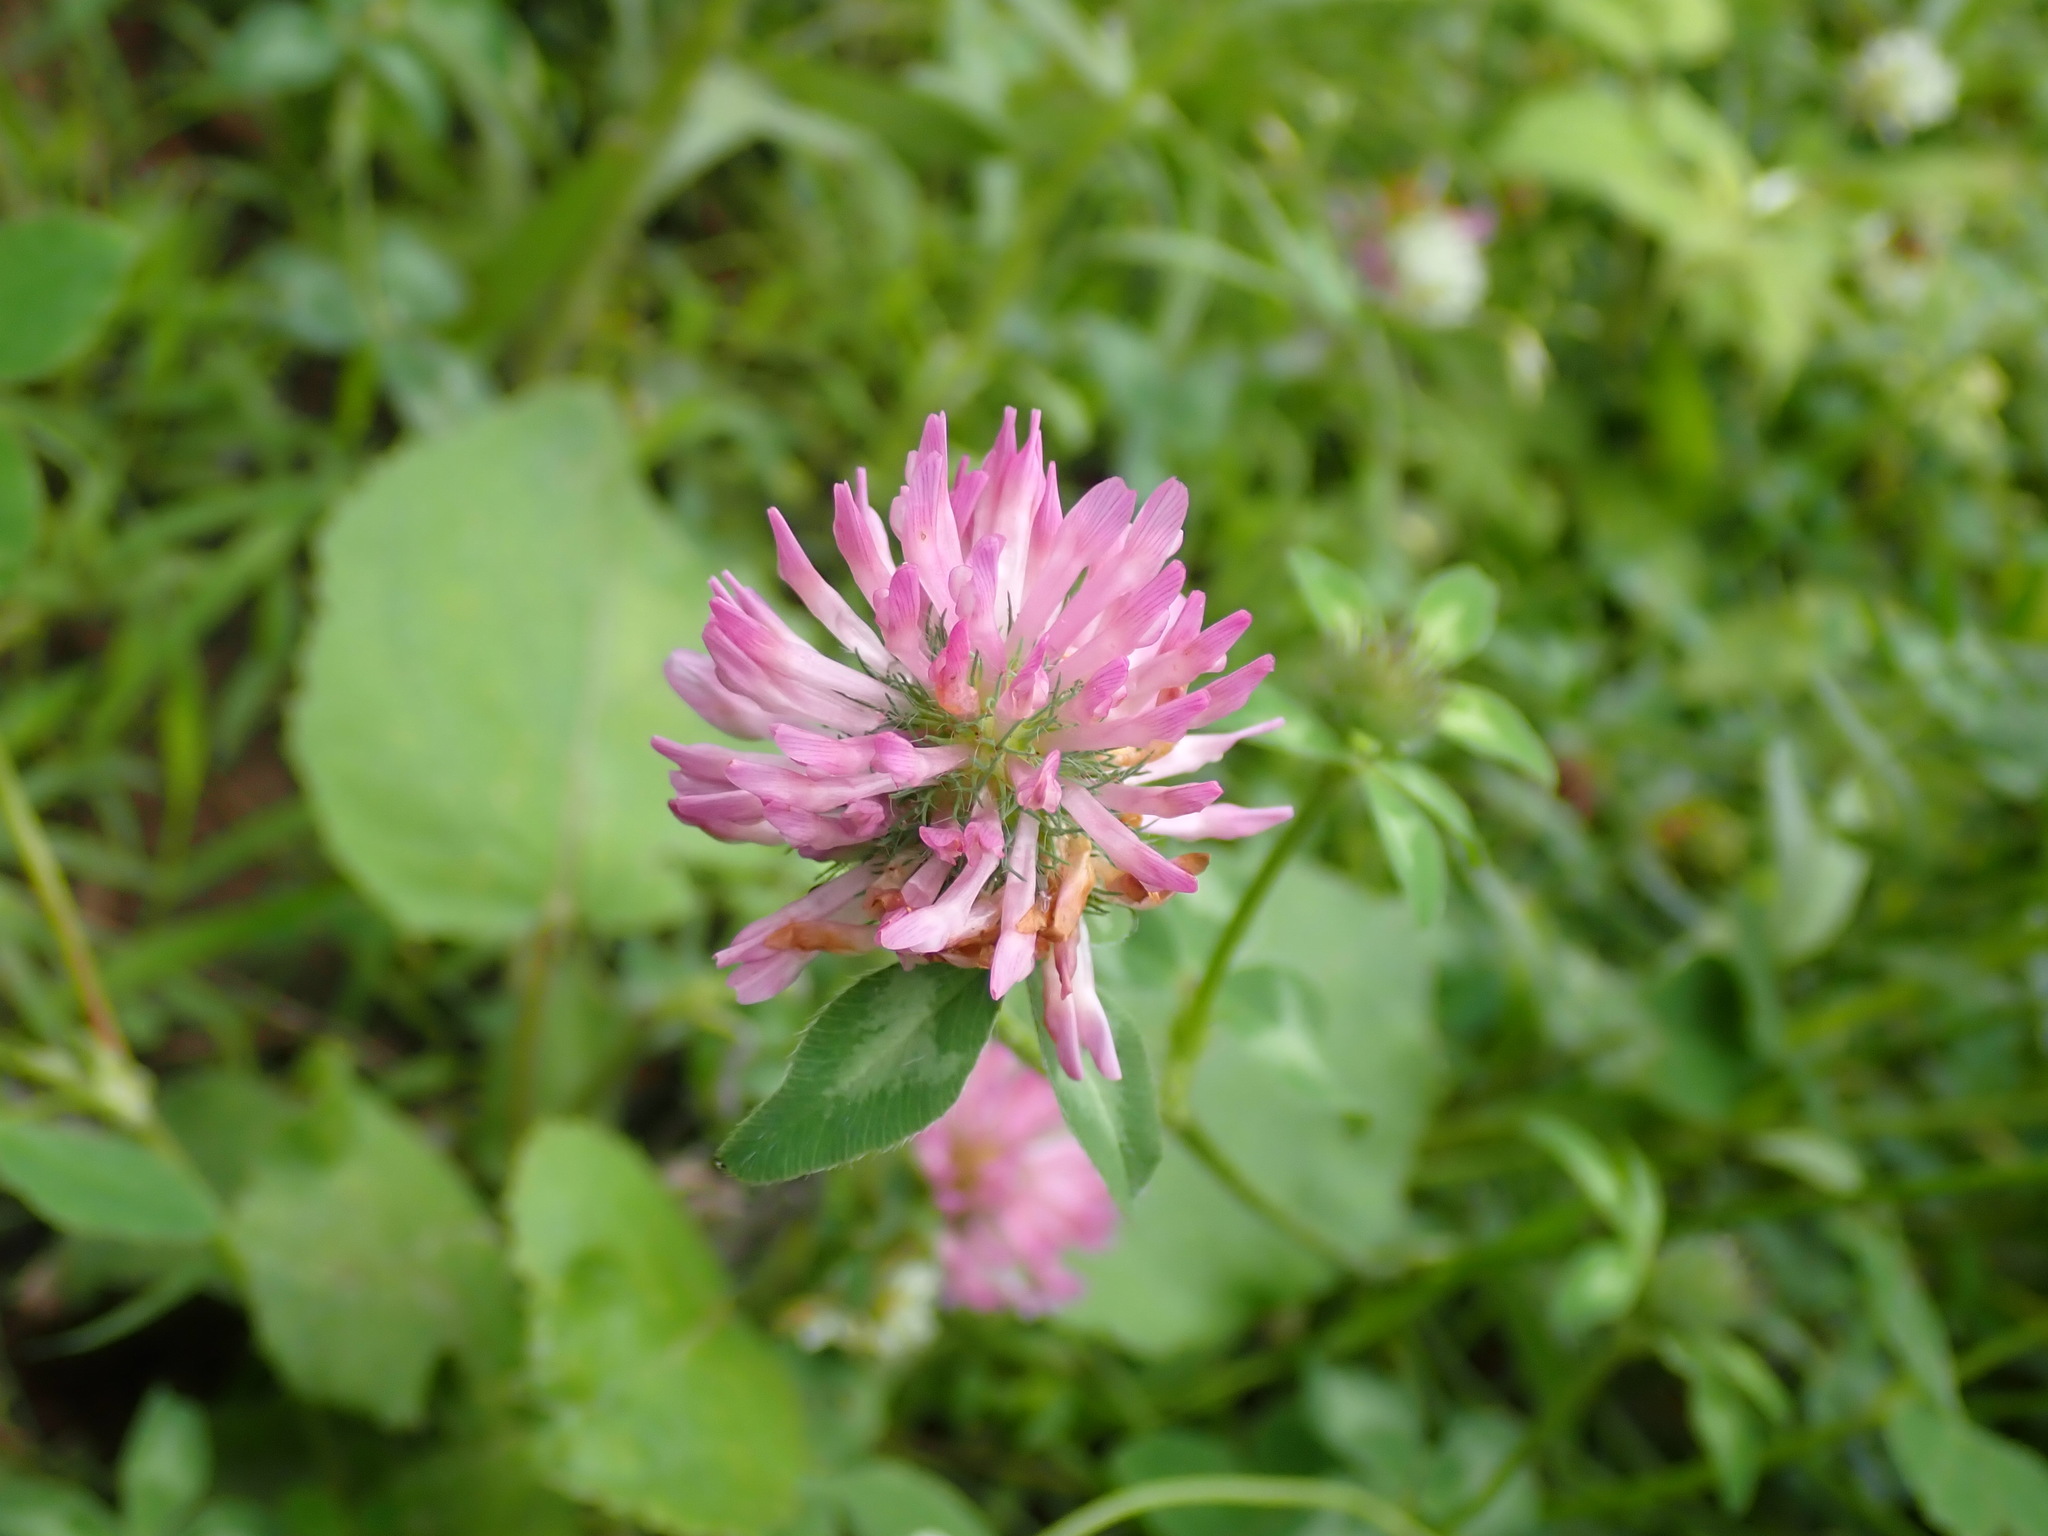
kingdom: Plantae
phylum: Tracheophyta
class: Magnoliopsida
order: Fabales
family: Fabaceae
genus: Trifolium
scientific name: Trifolium pratense
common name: Red clover
